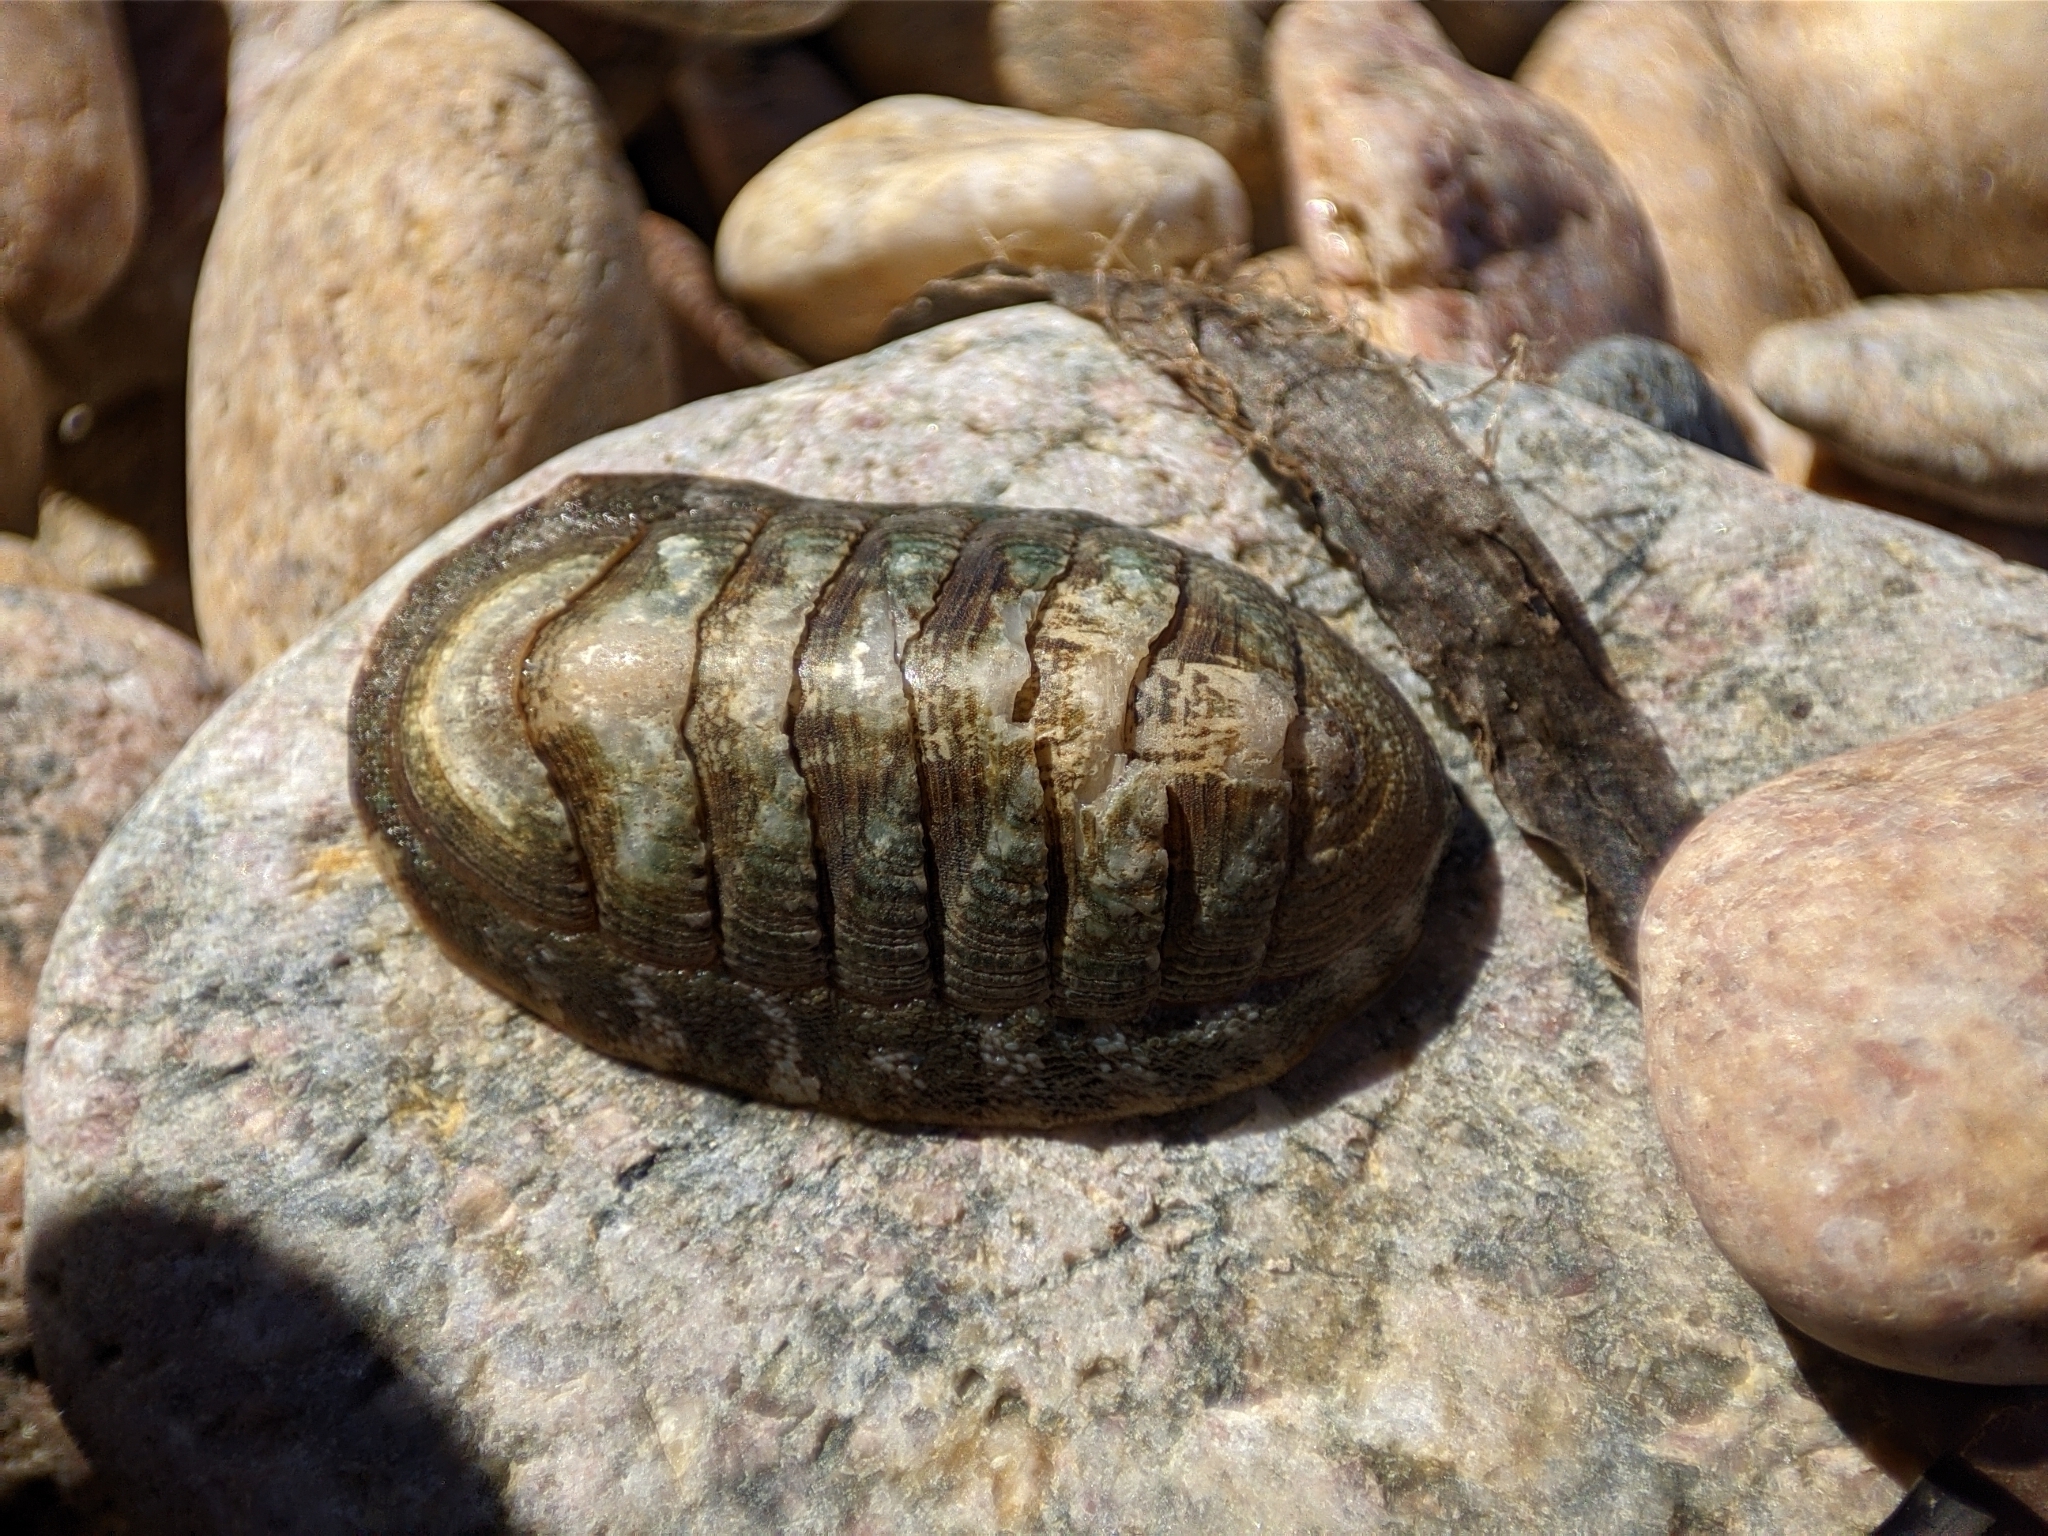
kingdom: Animalia
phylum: Mollusca
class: Polyplacophora
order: Chitonida
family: Ischnochitonidae
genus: Ischnochiton
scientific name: Ischnochiton hakodadensis
